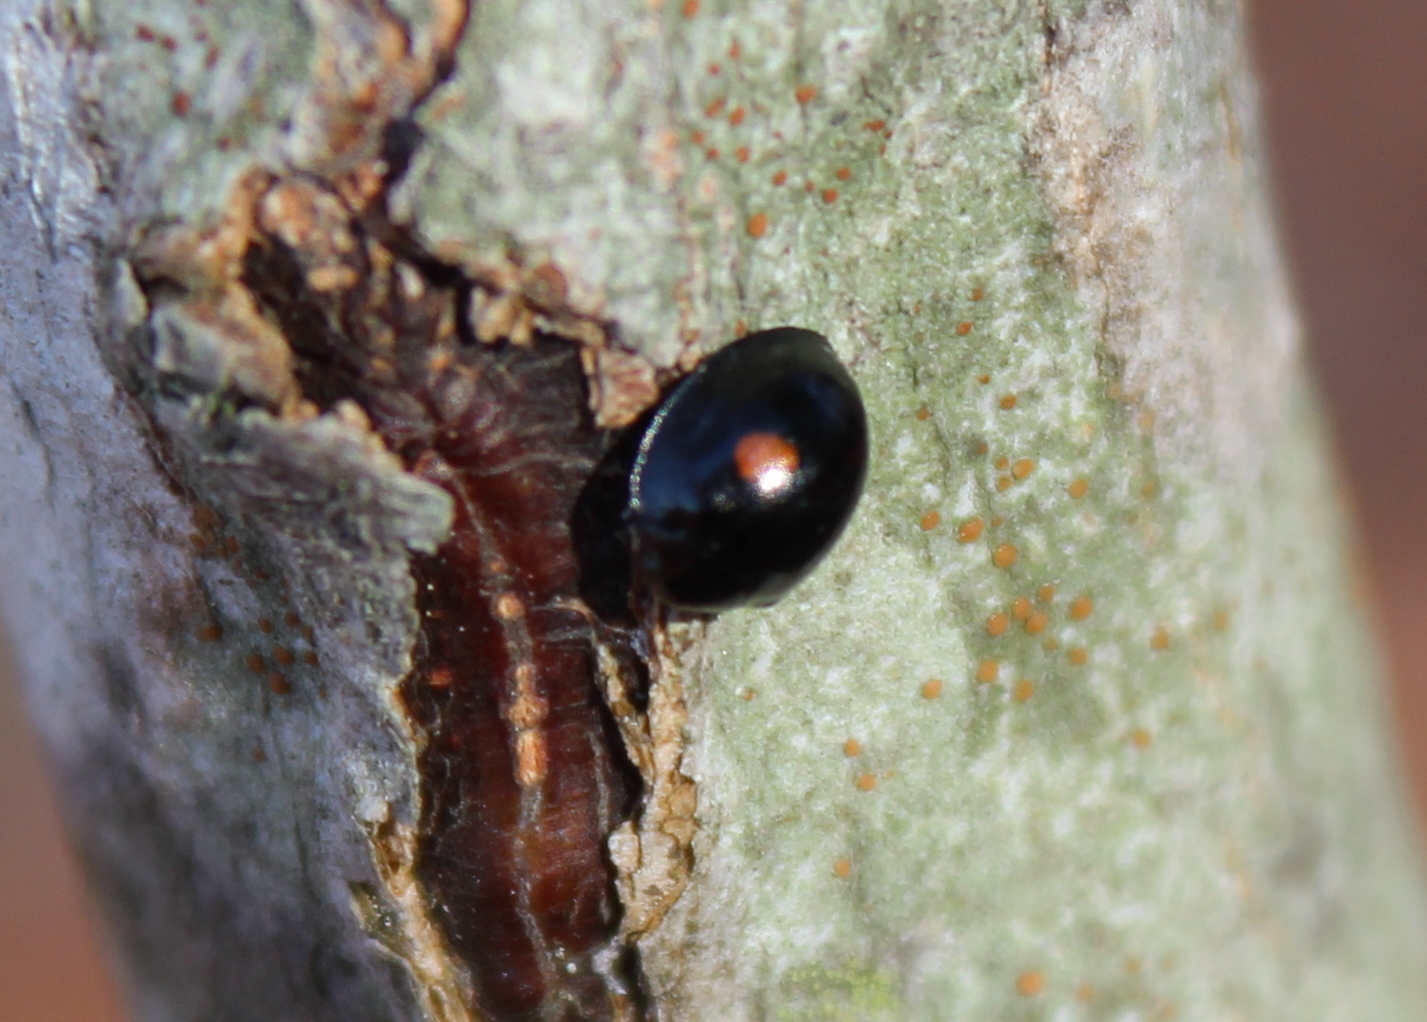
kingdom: Animalia
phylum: Arthropoda
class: Insecta
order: Coleoptera
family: Coccinellidae
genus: Chilocorus
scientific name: Chilocorus stigma
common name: Twicestabbed lady beetle
